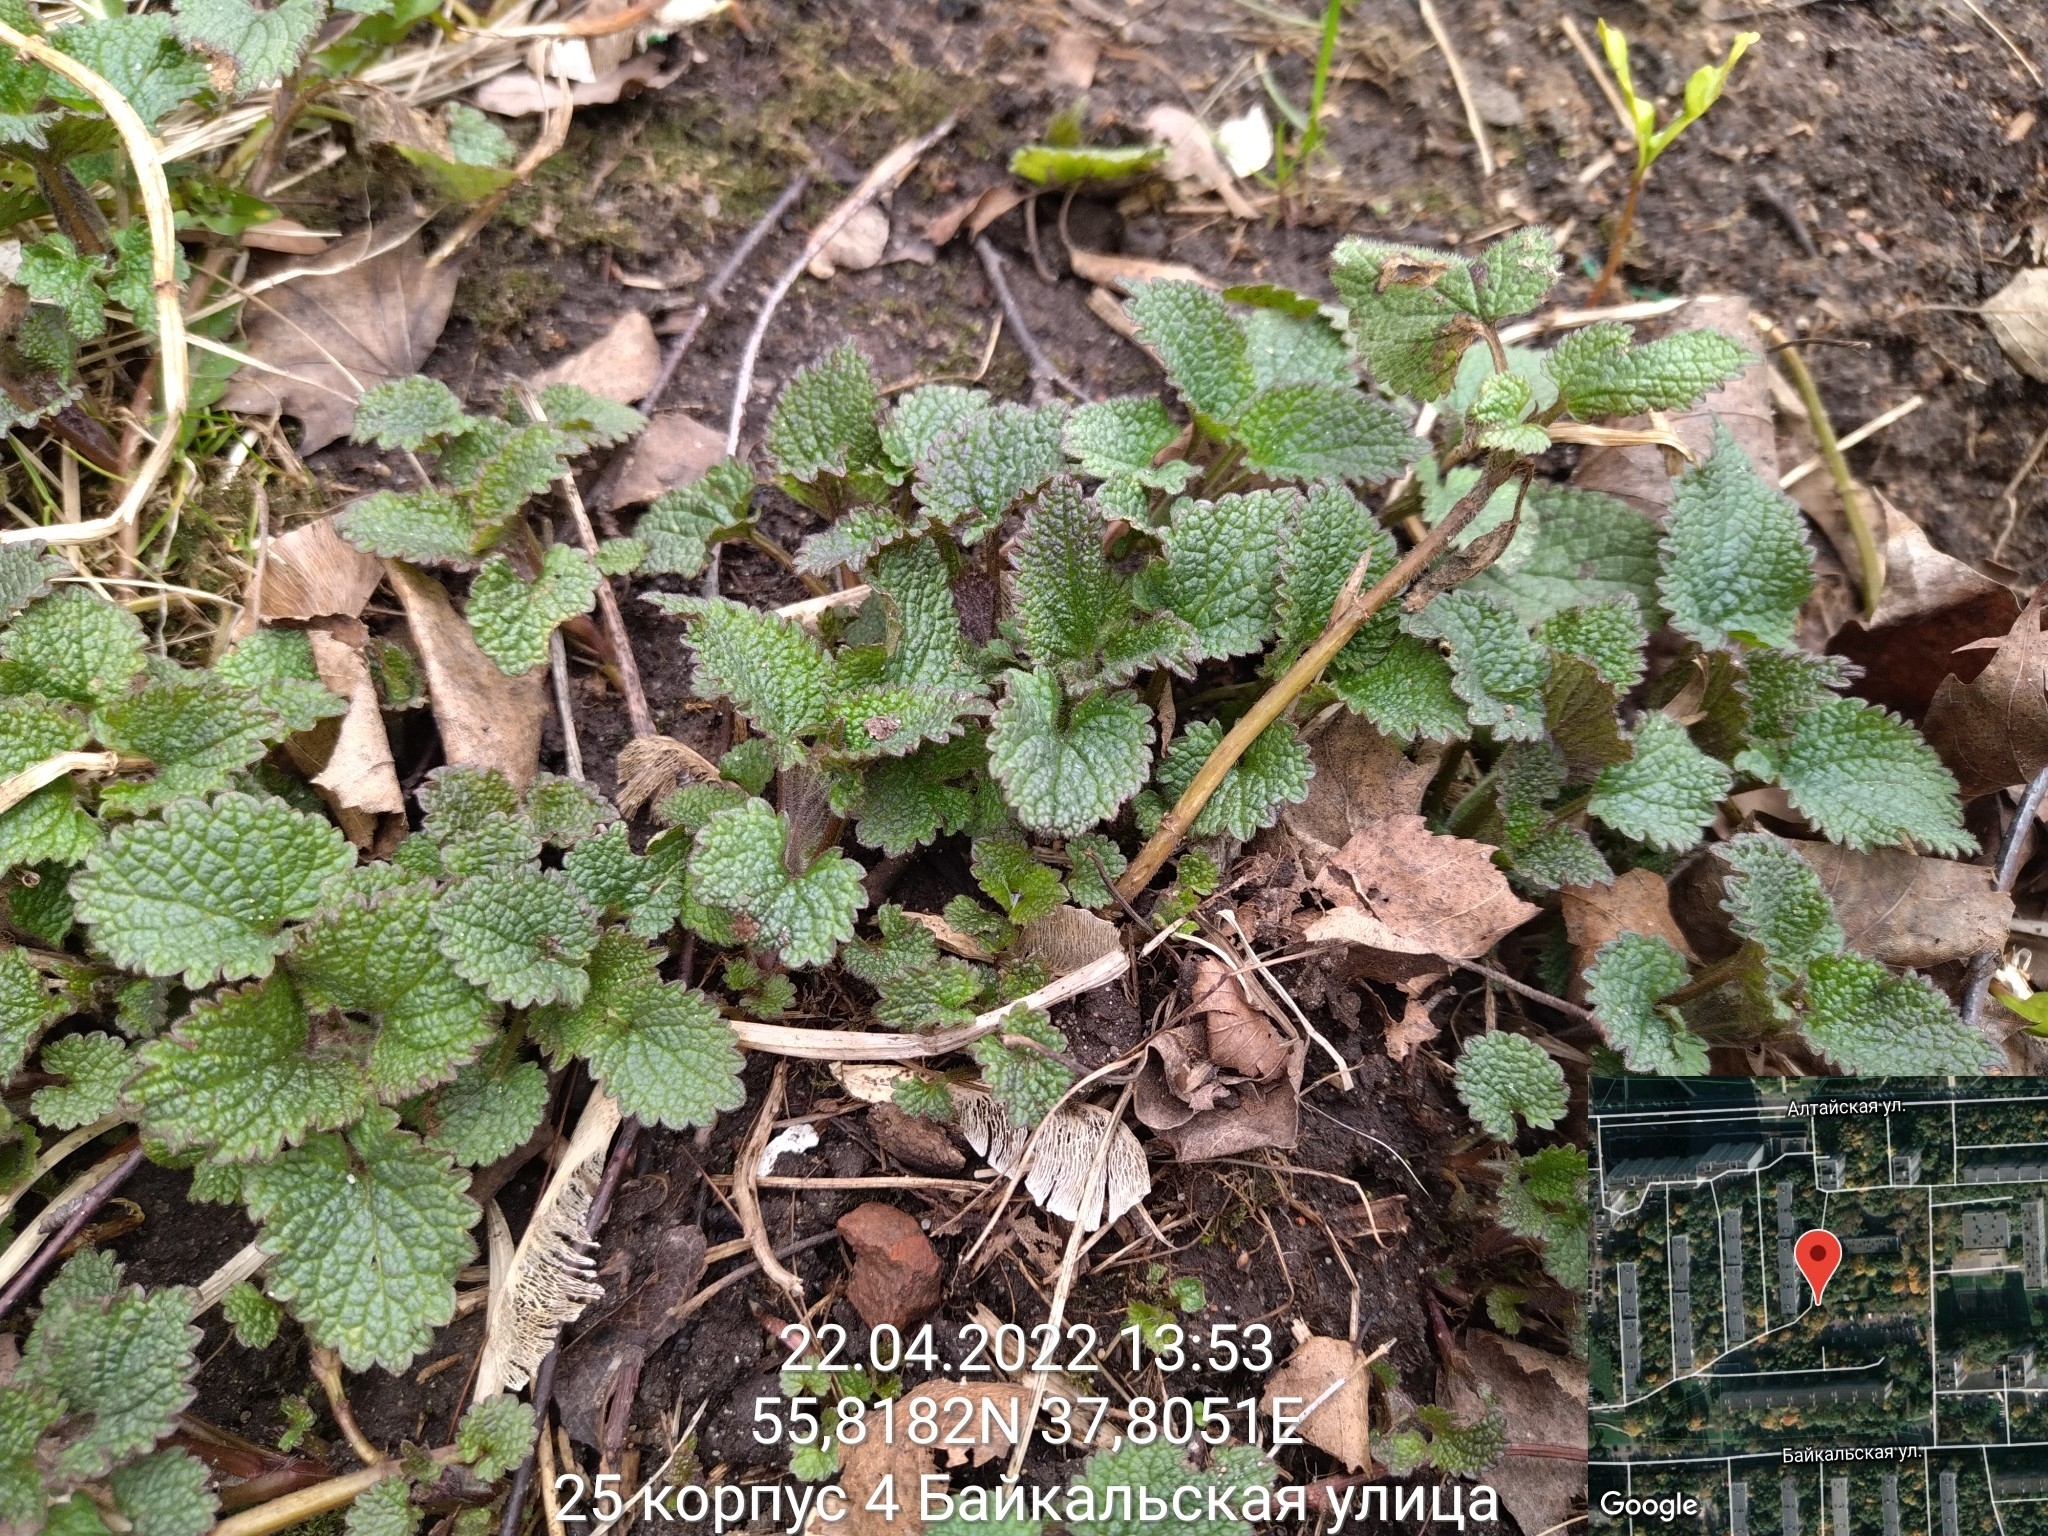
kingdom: Plantae
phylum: Tracheophyta
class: Magnoliopsida
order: Lamiales
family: Lamiaceae
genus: Lamium
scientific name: Lamium album
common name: White dead-nettle
